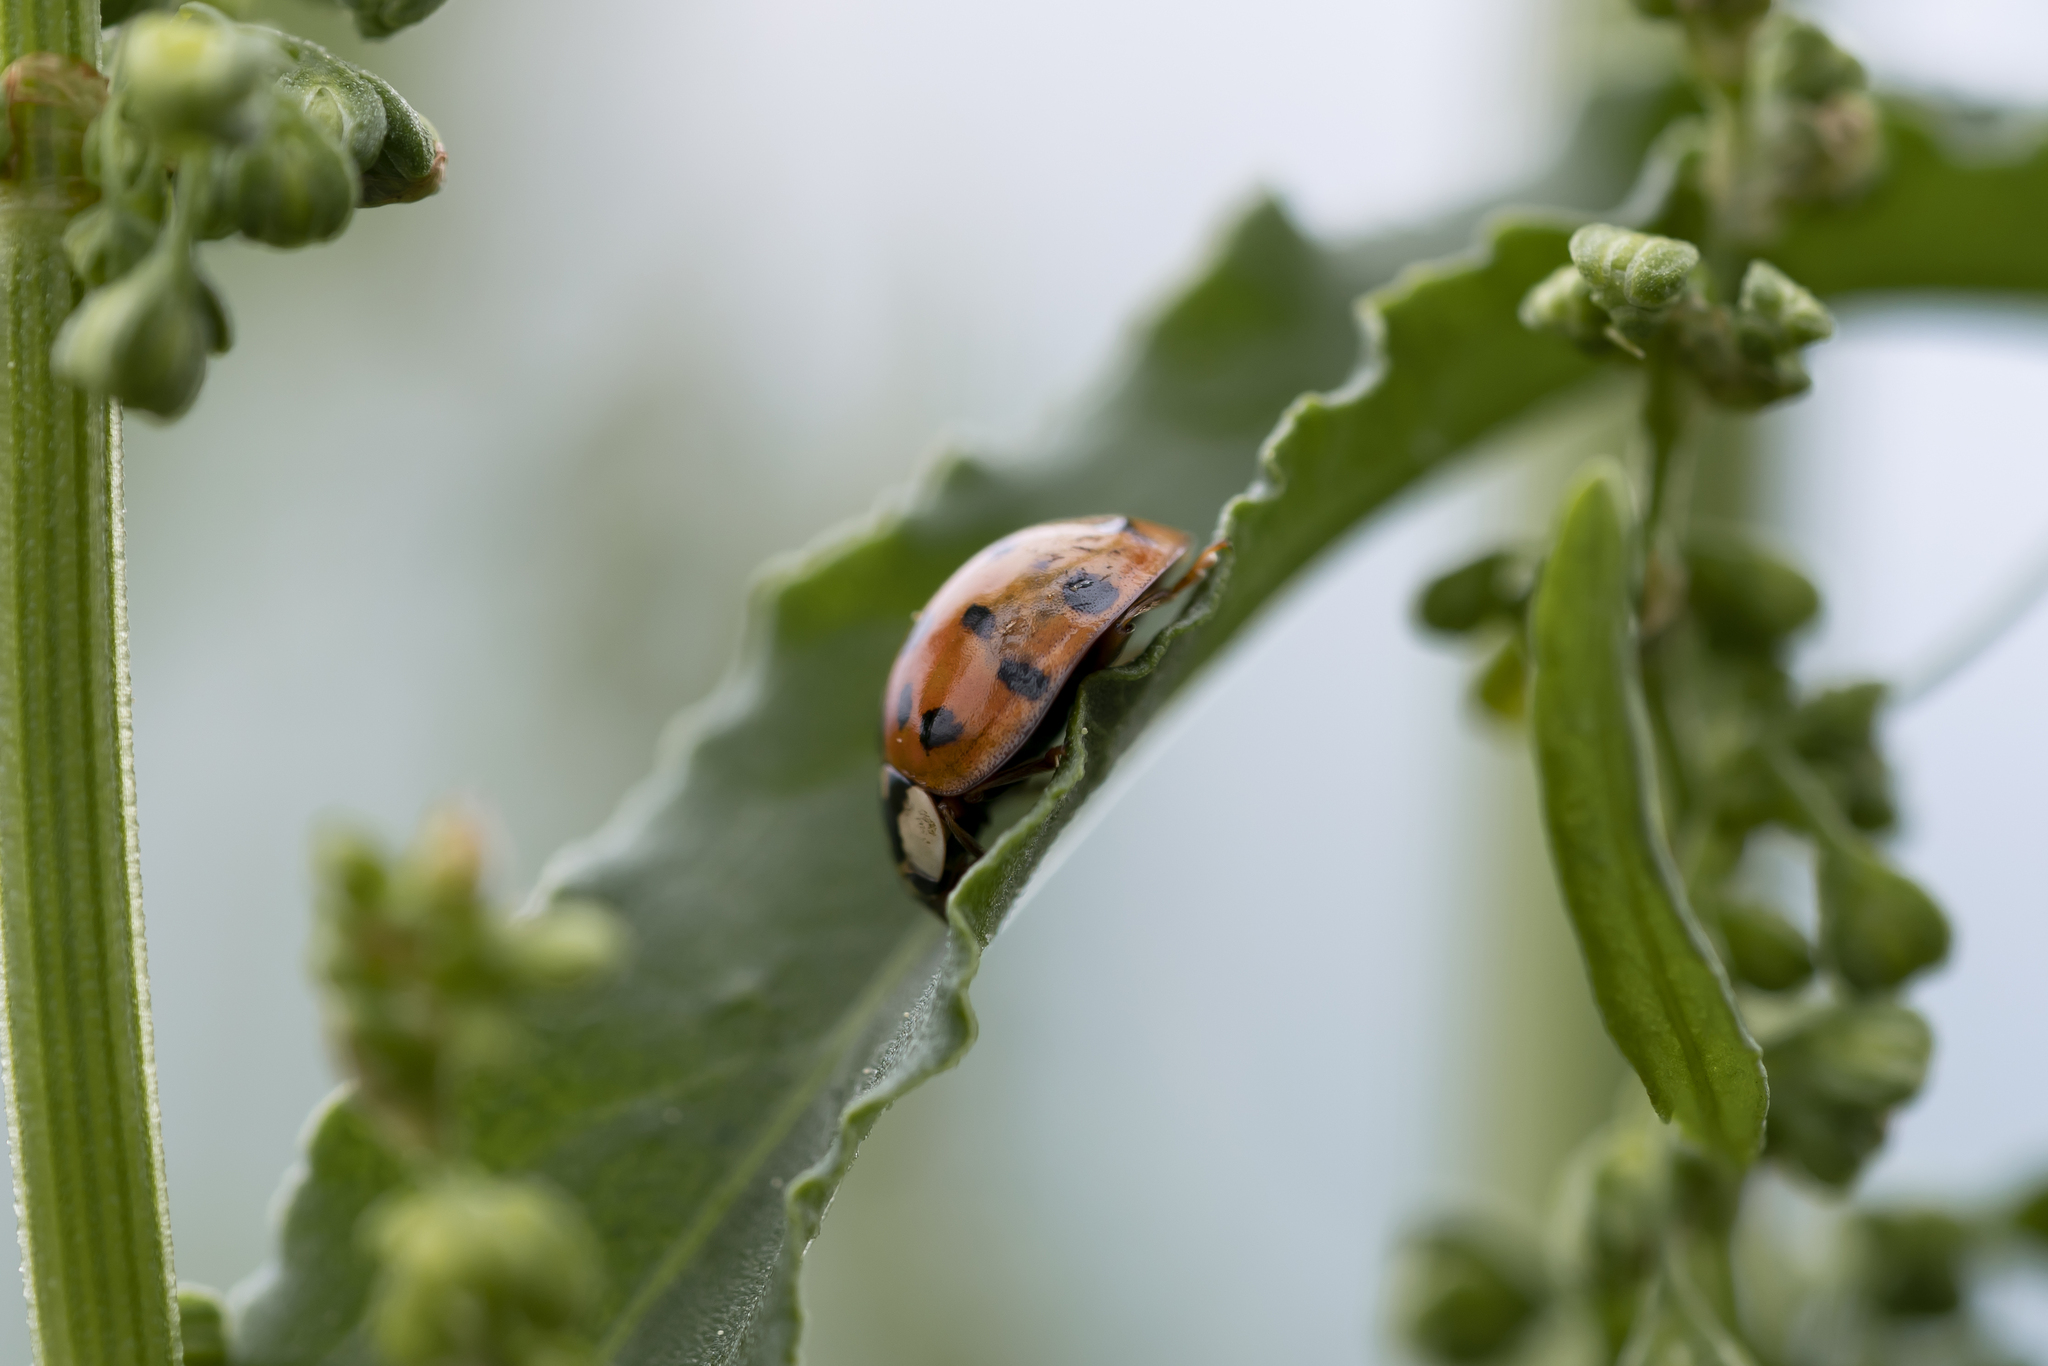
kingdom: Animalia
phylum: Arthropoda
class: Insecta
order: Coleoptera
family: Coccinellidae
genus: Harmonia
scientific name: Harmonia axyridis
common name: Harlequin ladybird
